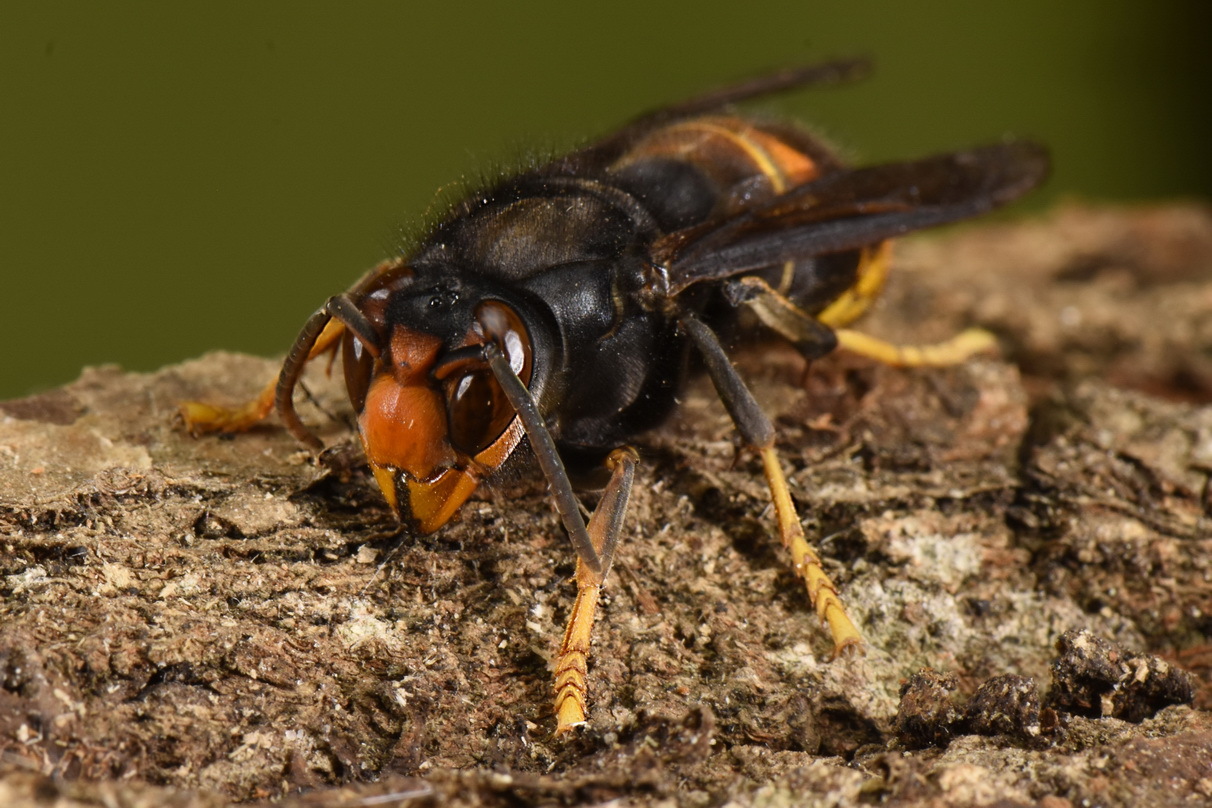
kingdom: Animalia
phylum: Arthropoda
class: Insecta
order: Hymenoptera
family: Vespidae
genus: Vespa
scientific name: Vespa velutina
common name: Asian hornet
